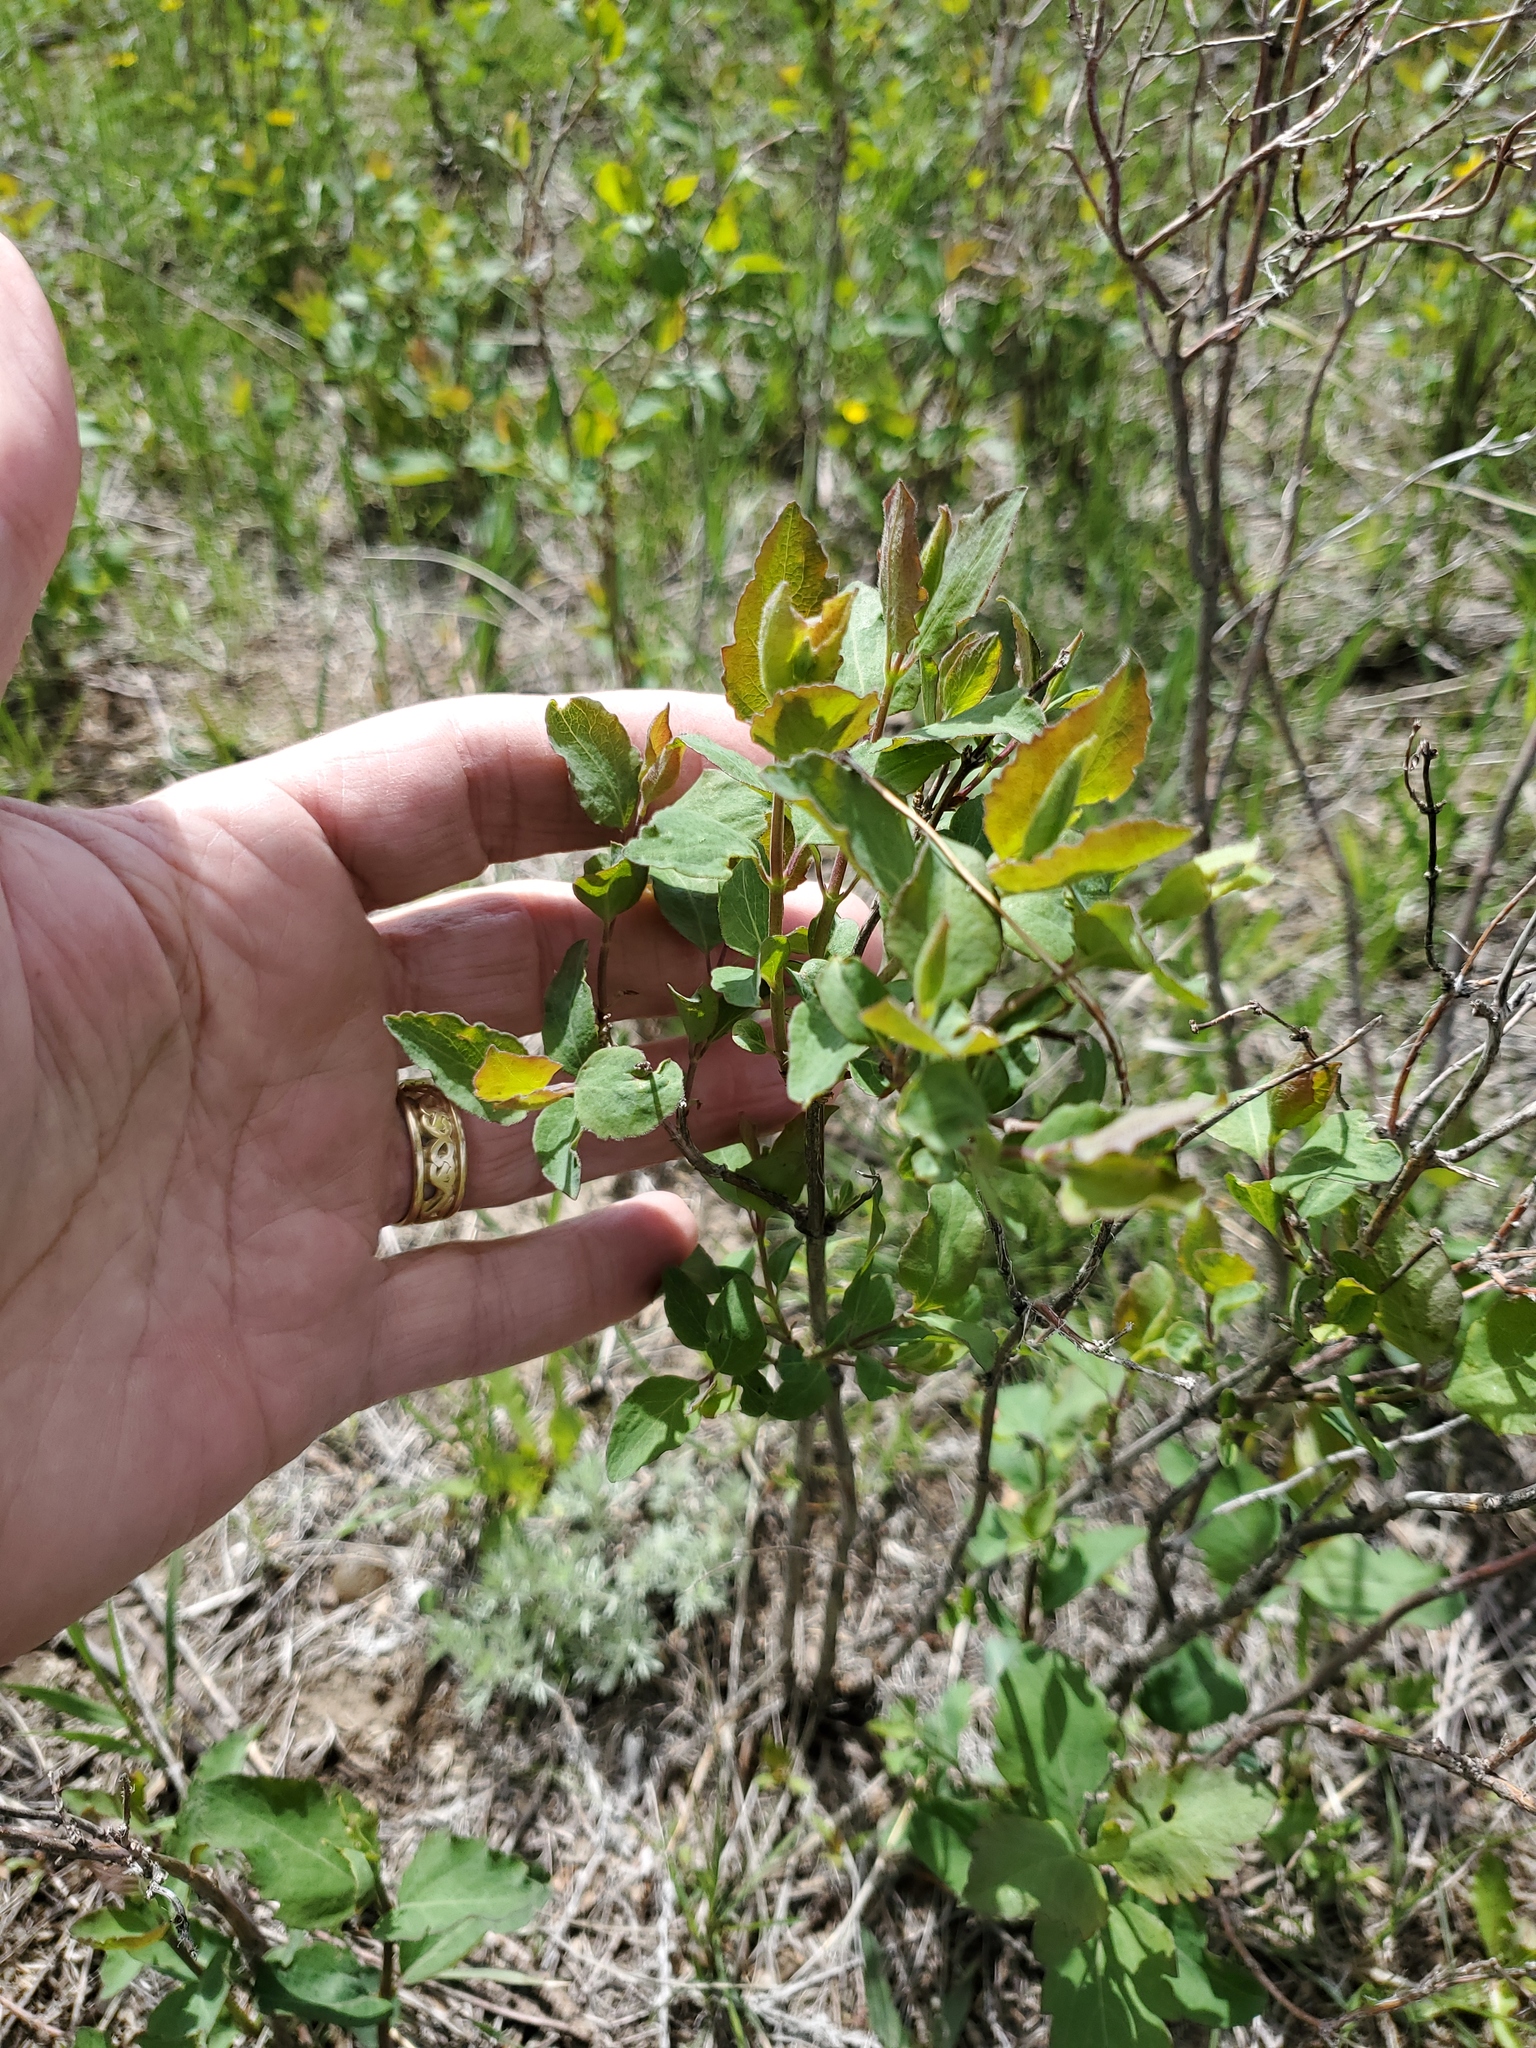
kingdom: Plantae
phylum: Tracheophyta
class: Magnoliopsida
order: Dipsacales
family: Caprifoliaceae
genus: Symphoricarpos
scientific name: Symphoricarpos occidentalis
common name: Wolfberry
